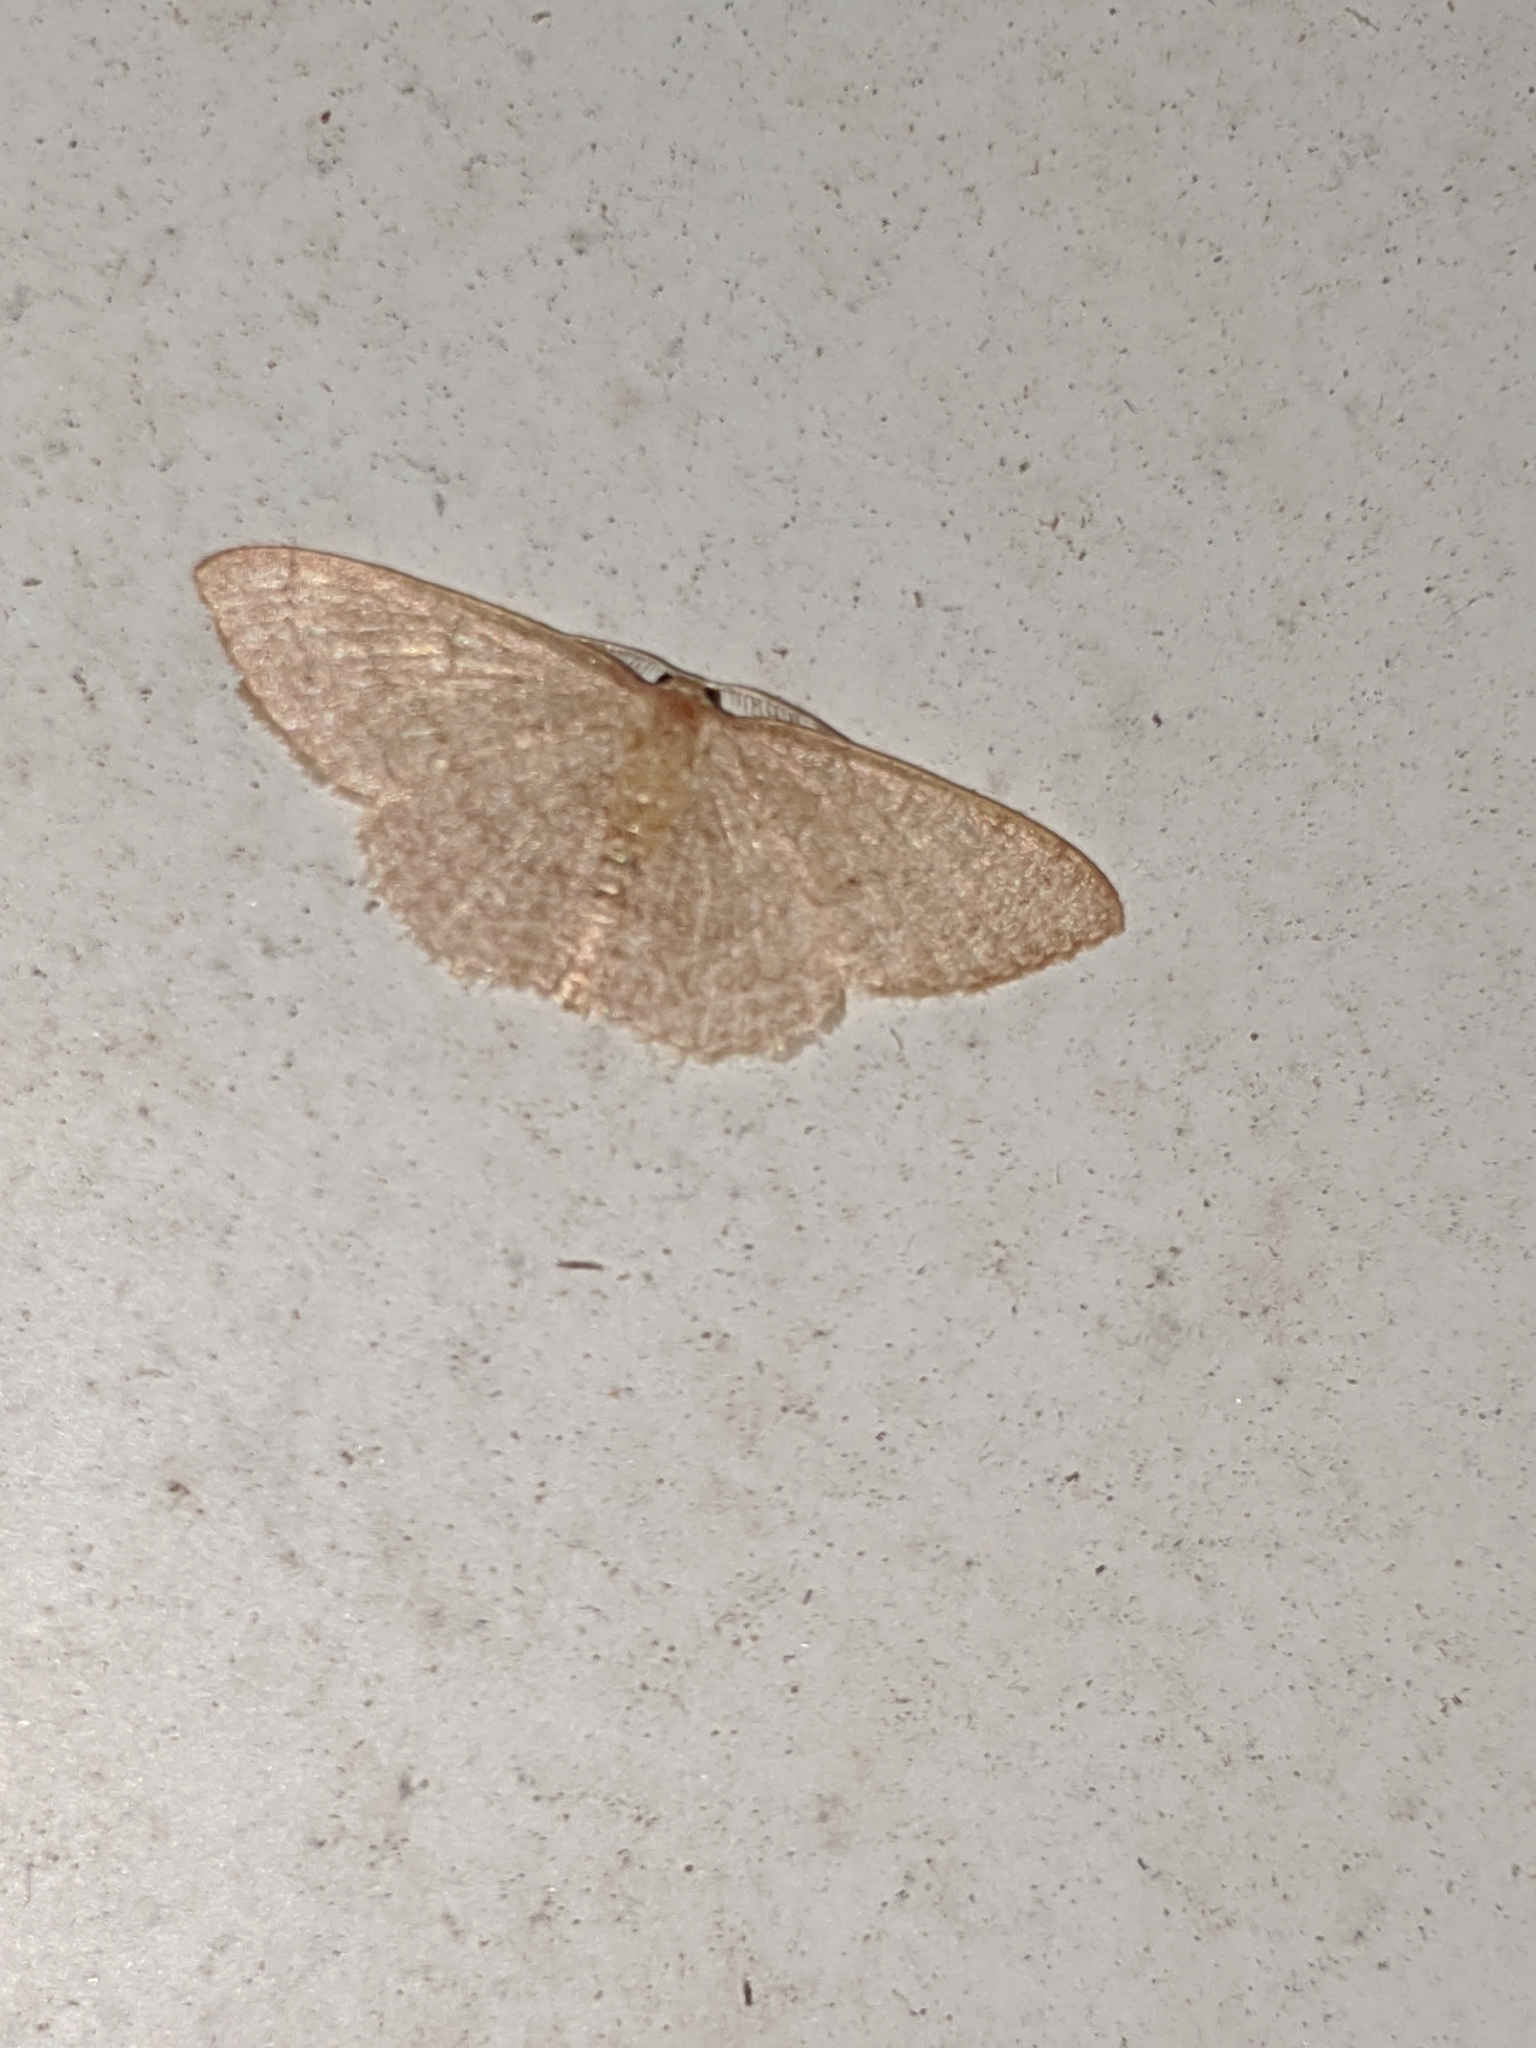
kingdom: Animalia
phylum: Arthropoda
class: Insecta
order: Lepidoptera
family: Geometridae
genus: Pleuroprucha
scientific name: Pleuroprucha insulsaria
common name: Common tan wave
